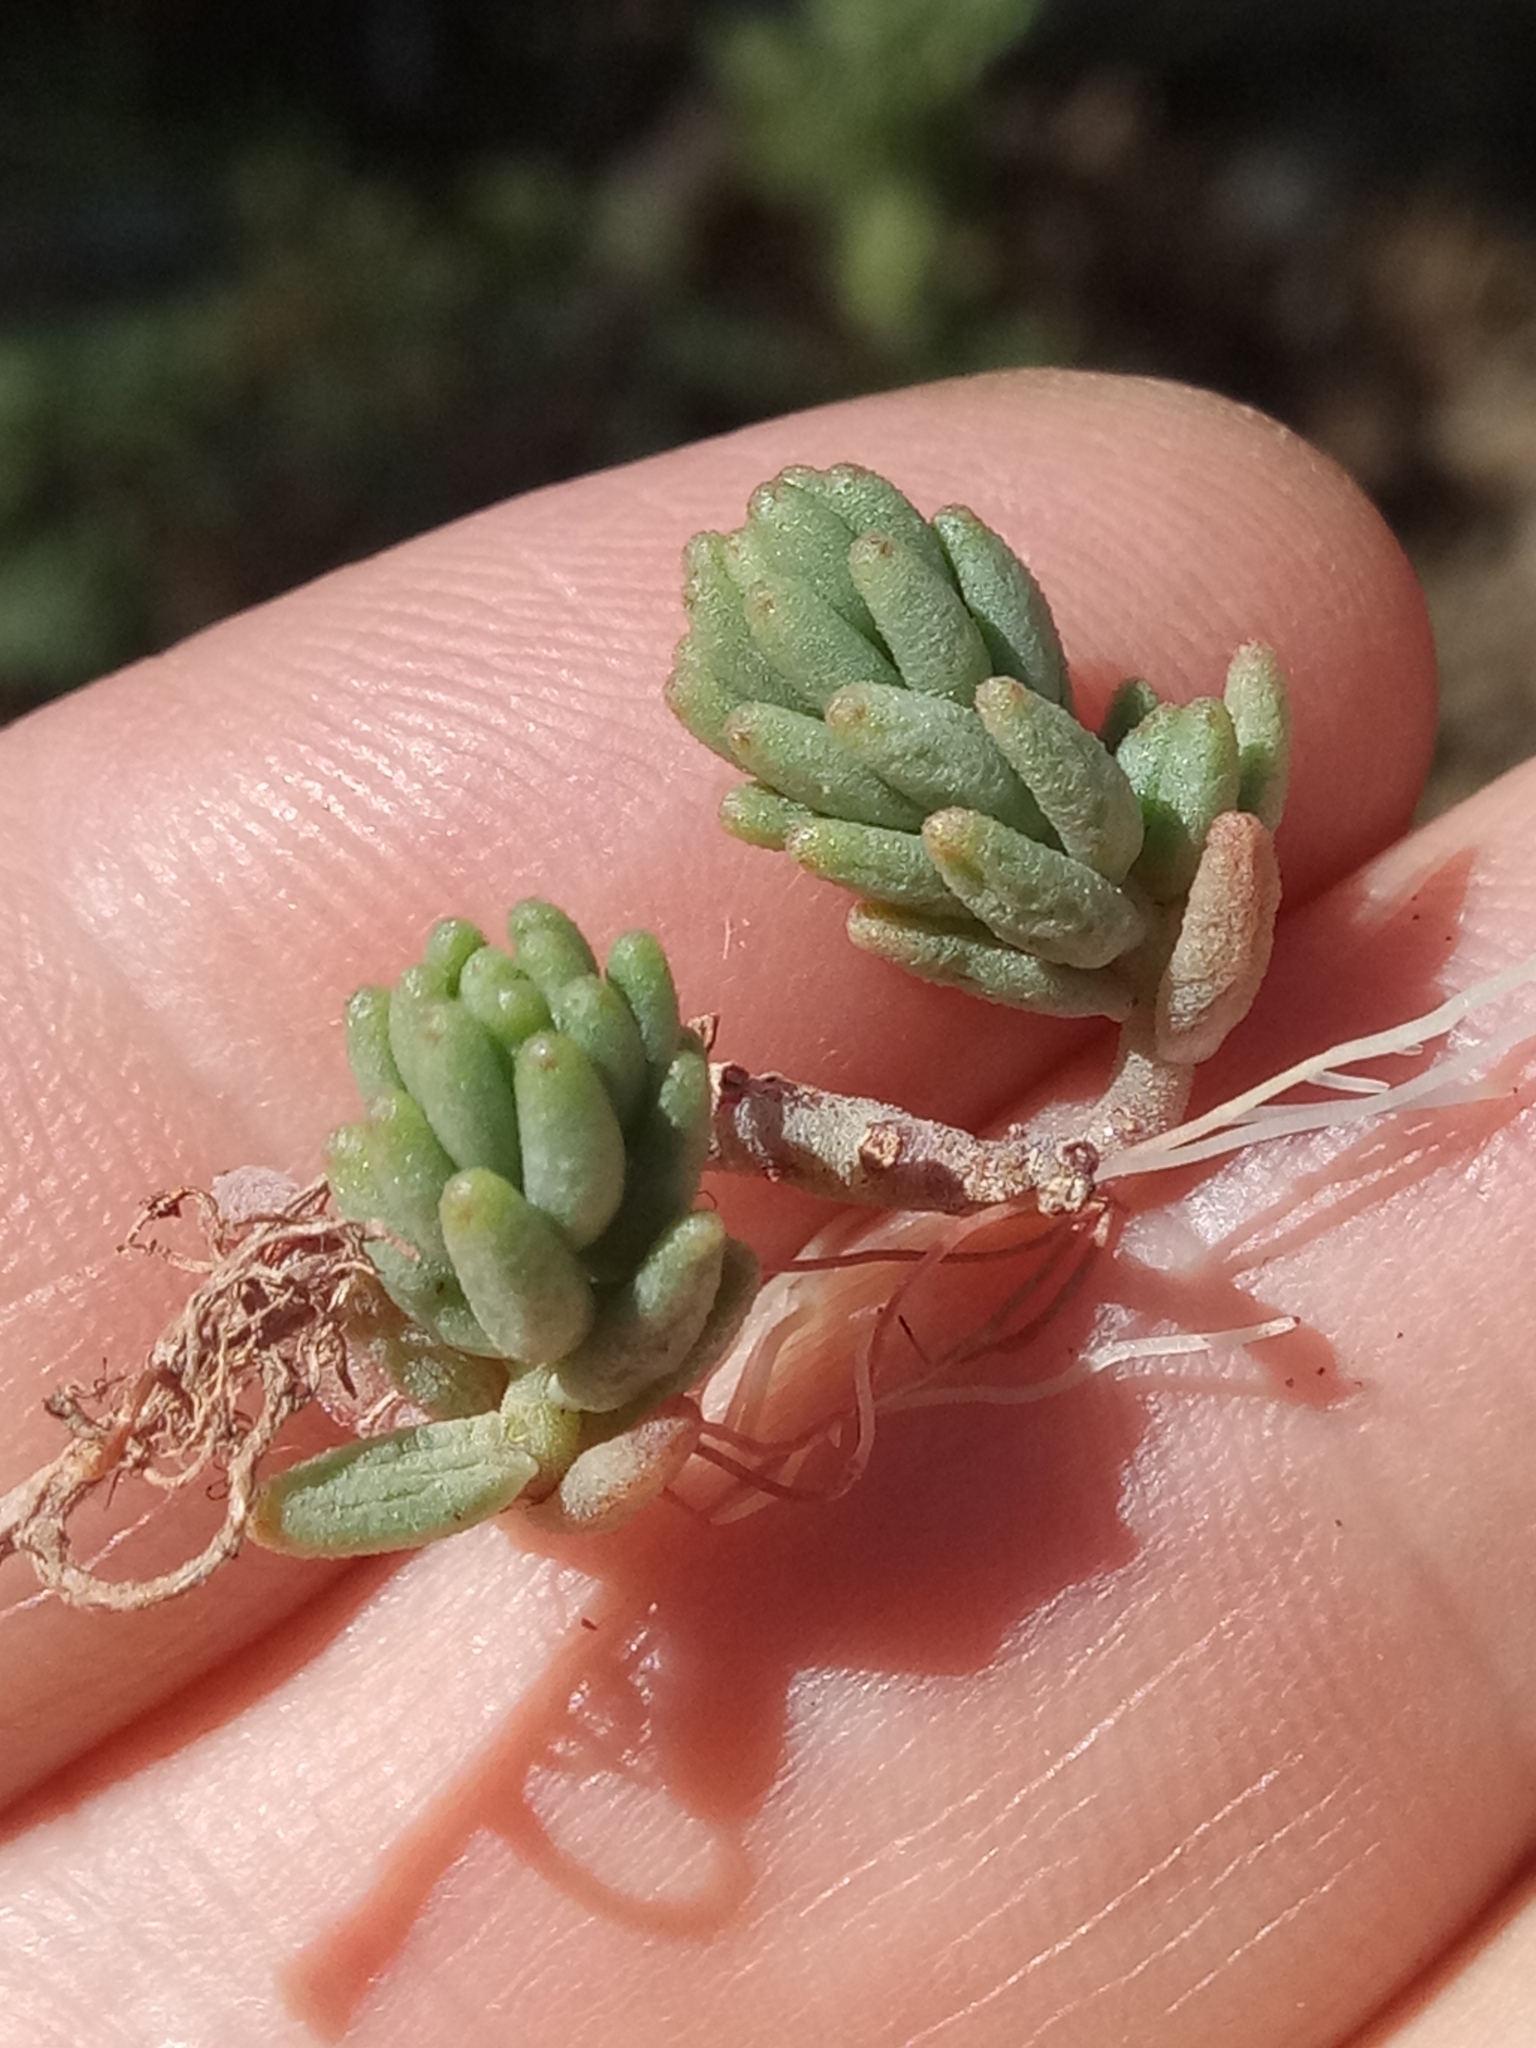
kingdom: Plantae
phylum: Tracheophyta
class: Magnoliopsida
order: Saxifragales
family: Crassulaceae
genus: Sedum
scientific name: Sedum album
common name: White stonecrop
